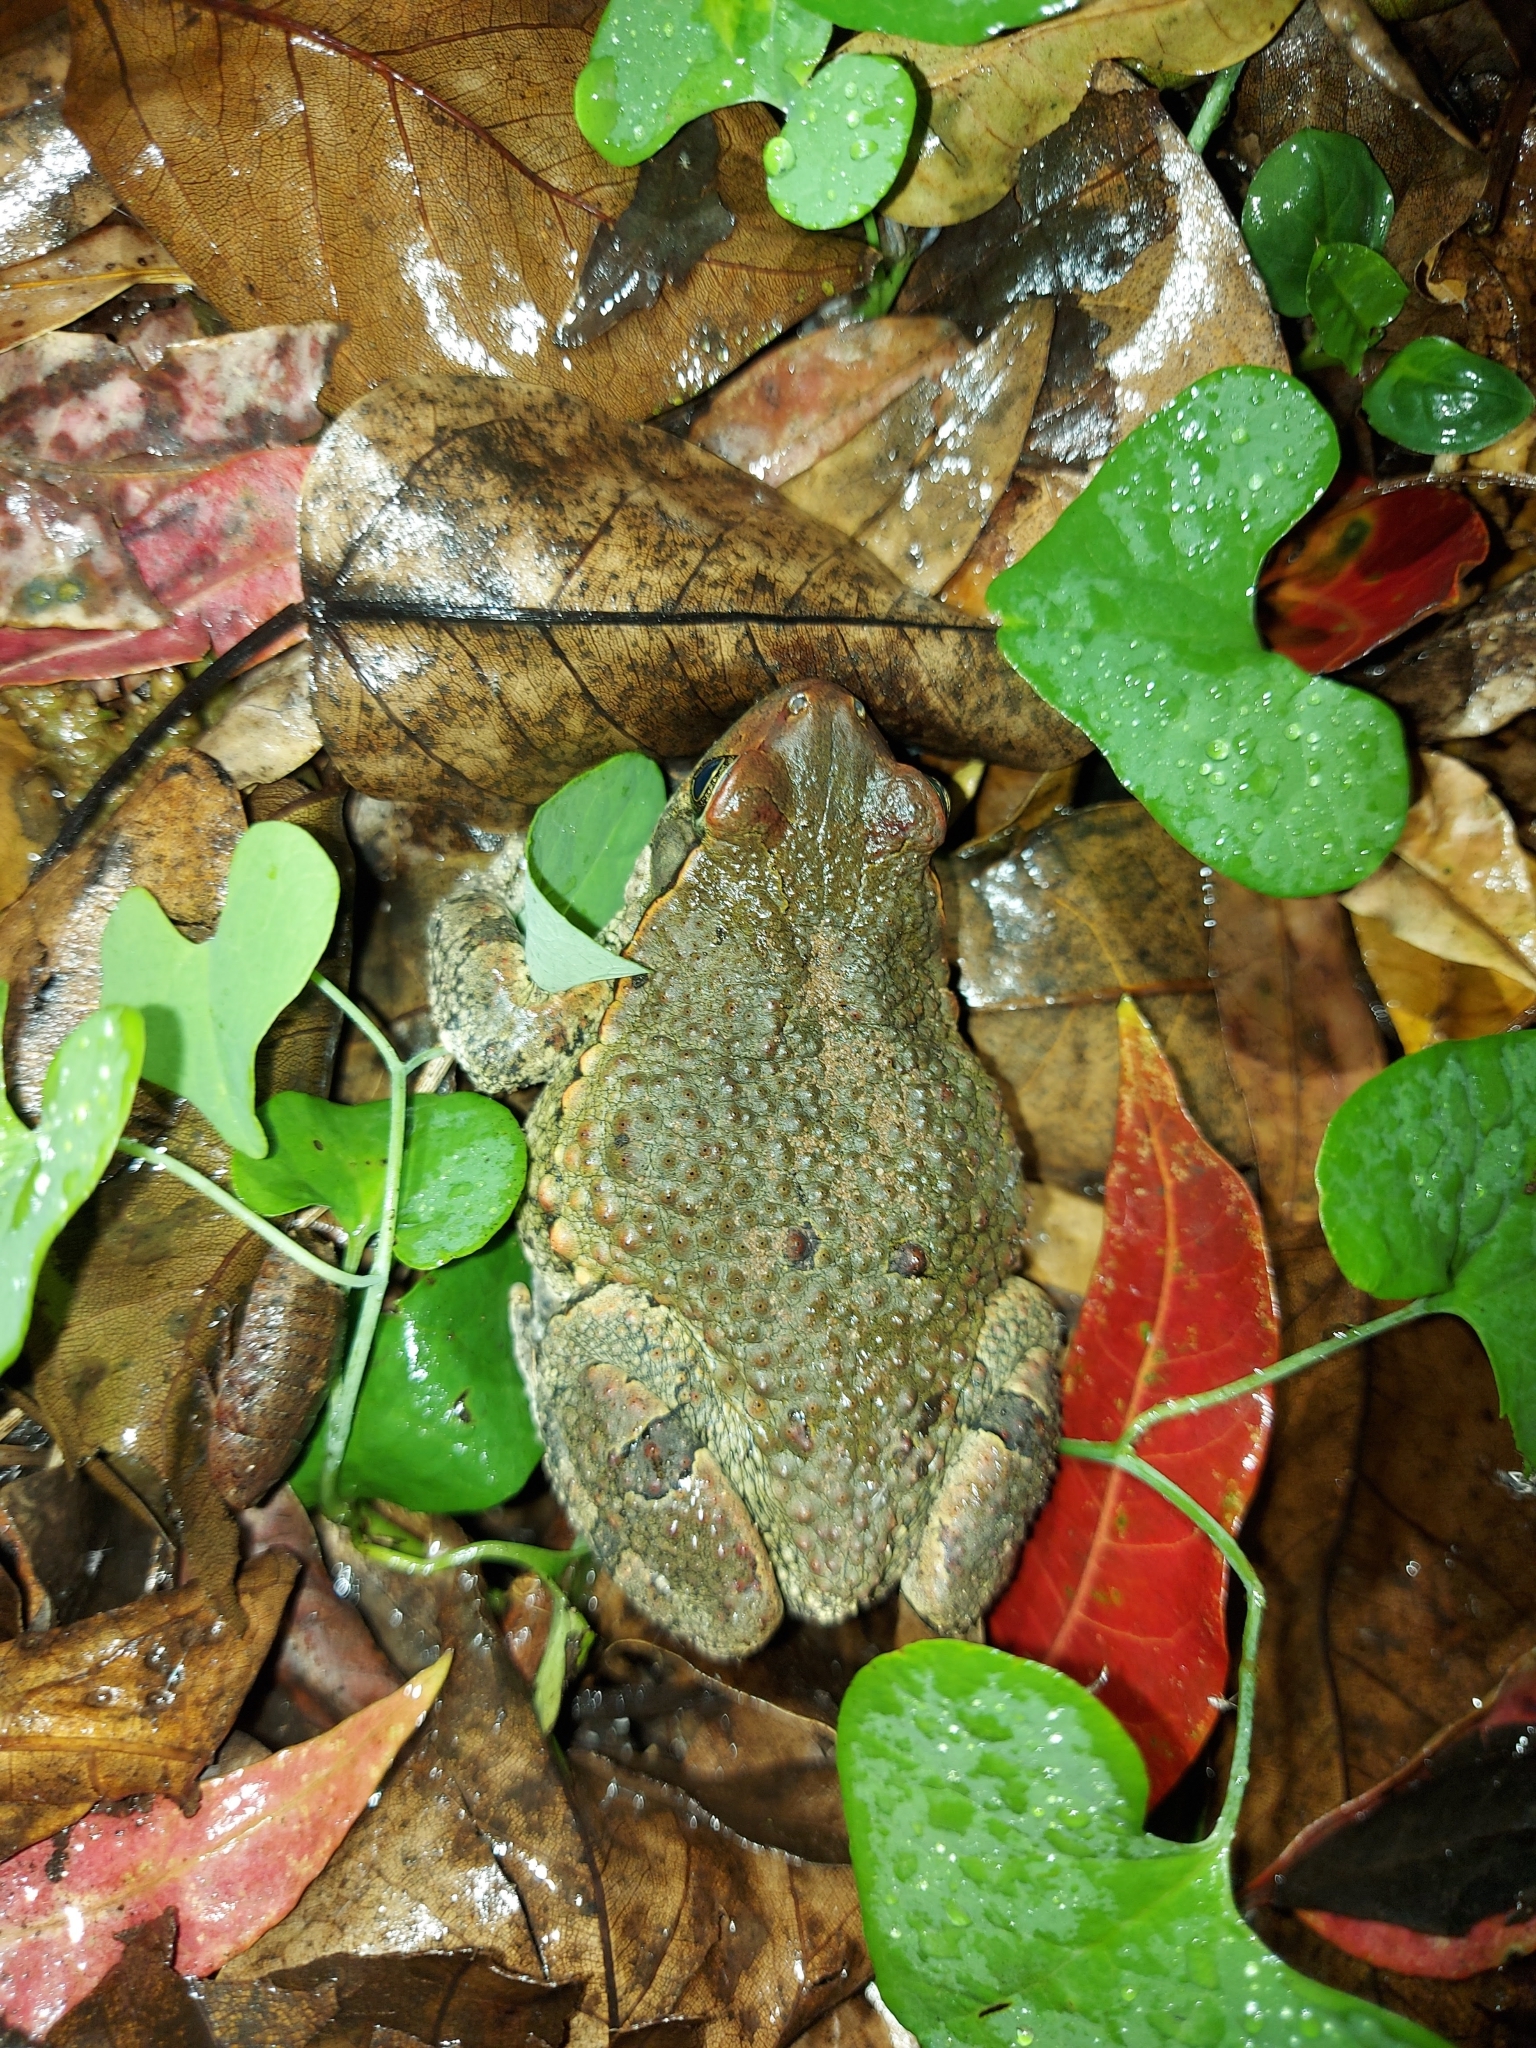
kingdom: Animalia
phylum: Chordata
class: Amphibia
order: Anura
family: Bufonidae
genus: Schismaderma
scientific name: Schismaderma carens
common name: African split-skin toad
